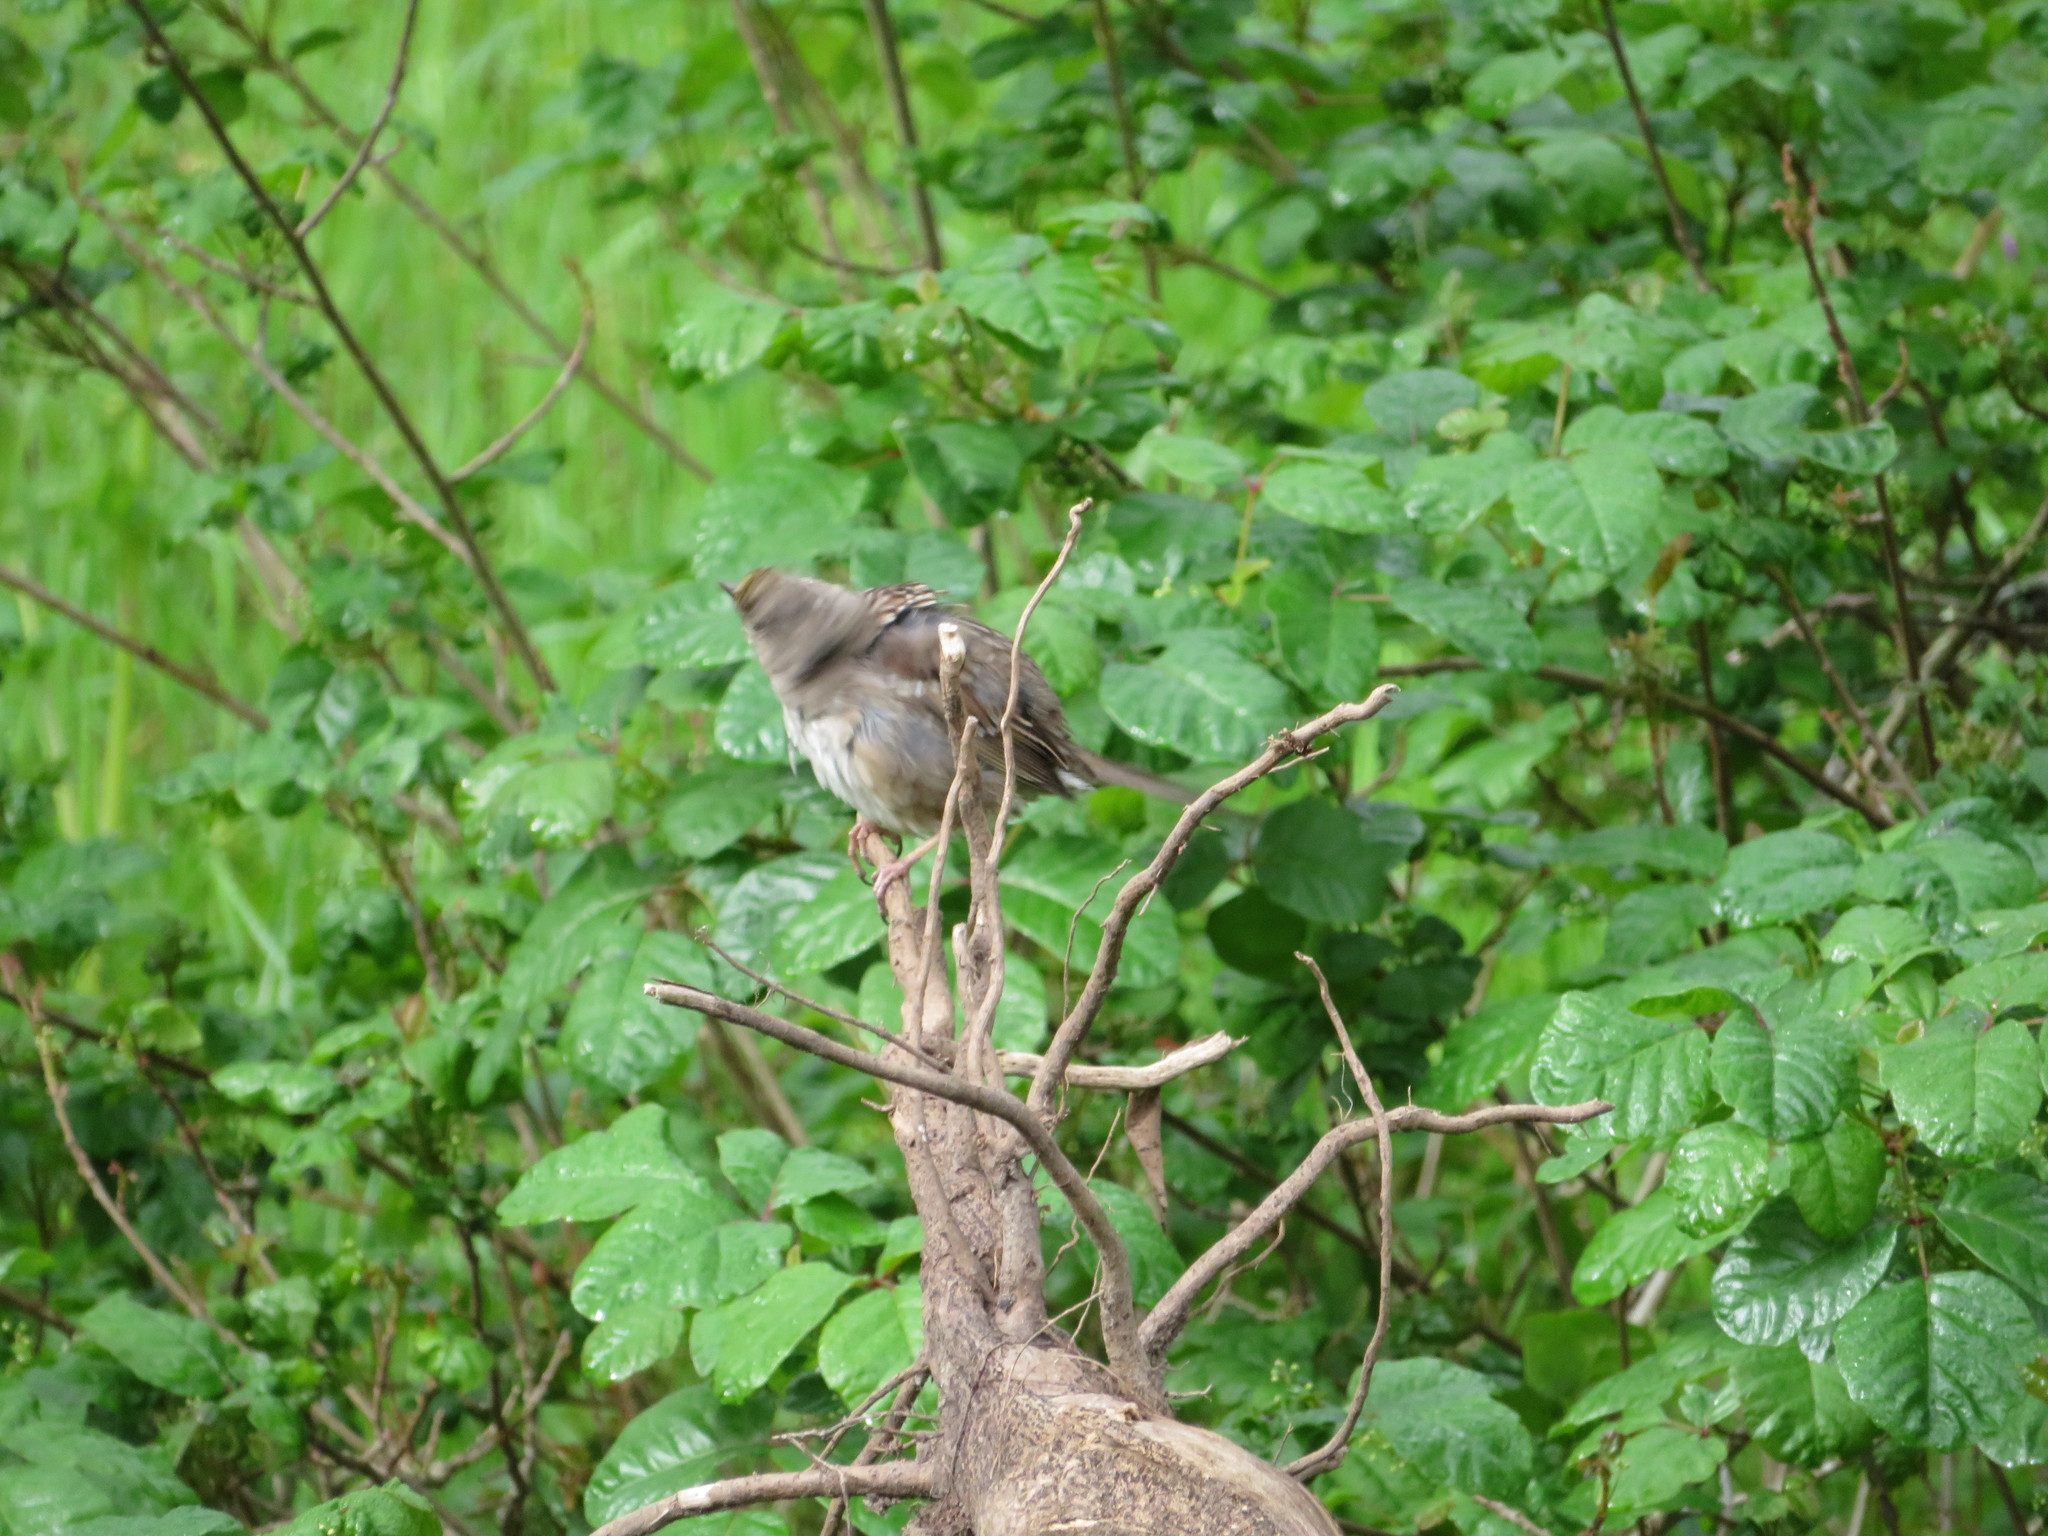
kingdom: Animalia
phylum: Chordata
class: Aves
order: Passeriformes
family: Passerellidae
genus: Zonotrichia
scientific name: Zonotrichia atricapilla
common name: Golden-crowned sparrow
